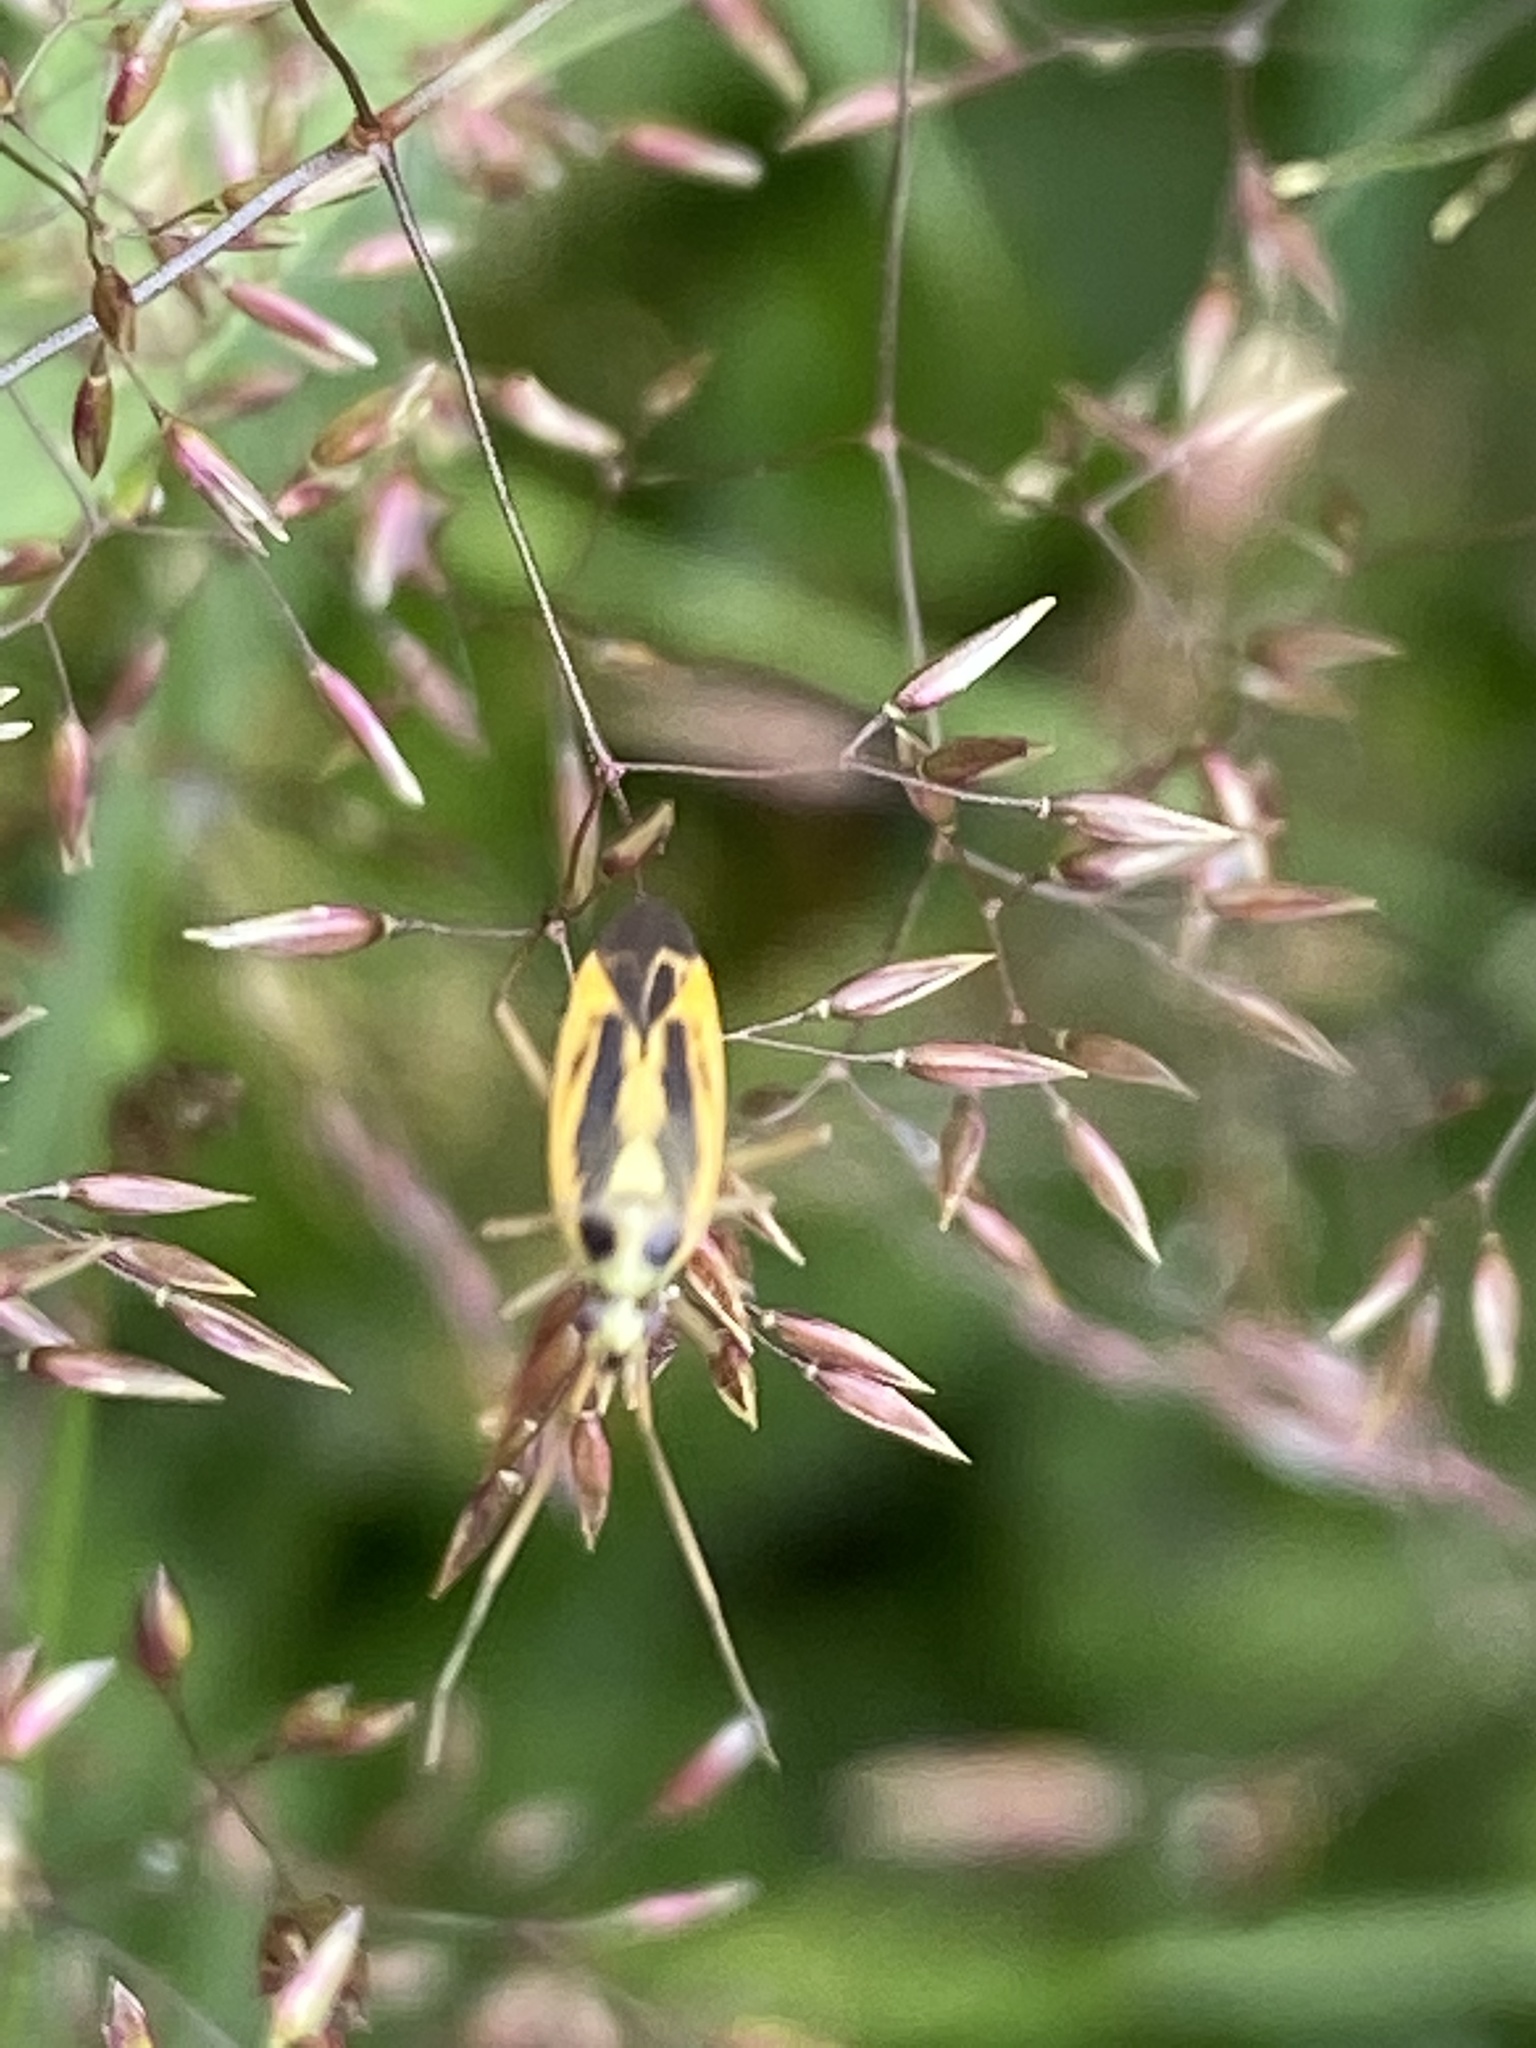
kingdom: Animalia
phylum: Arthropoda
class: Insecta
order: Hemiptera
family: Miridae
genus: Stenotus
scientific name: Stenotus binotatus
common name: Plant bug
